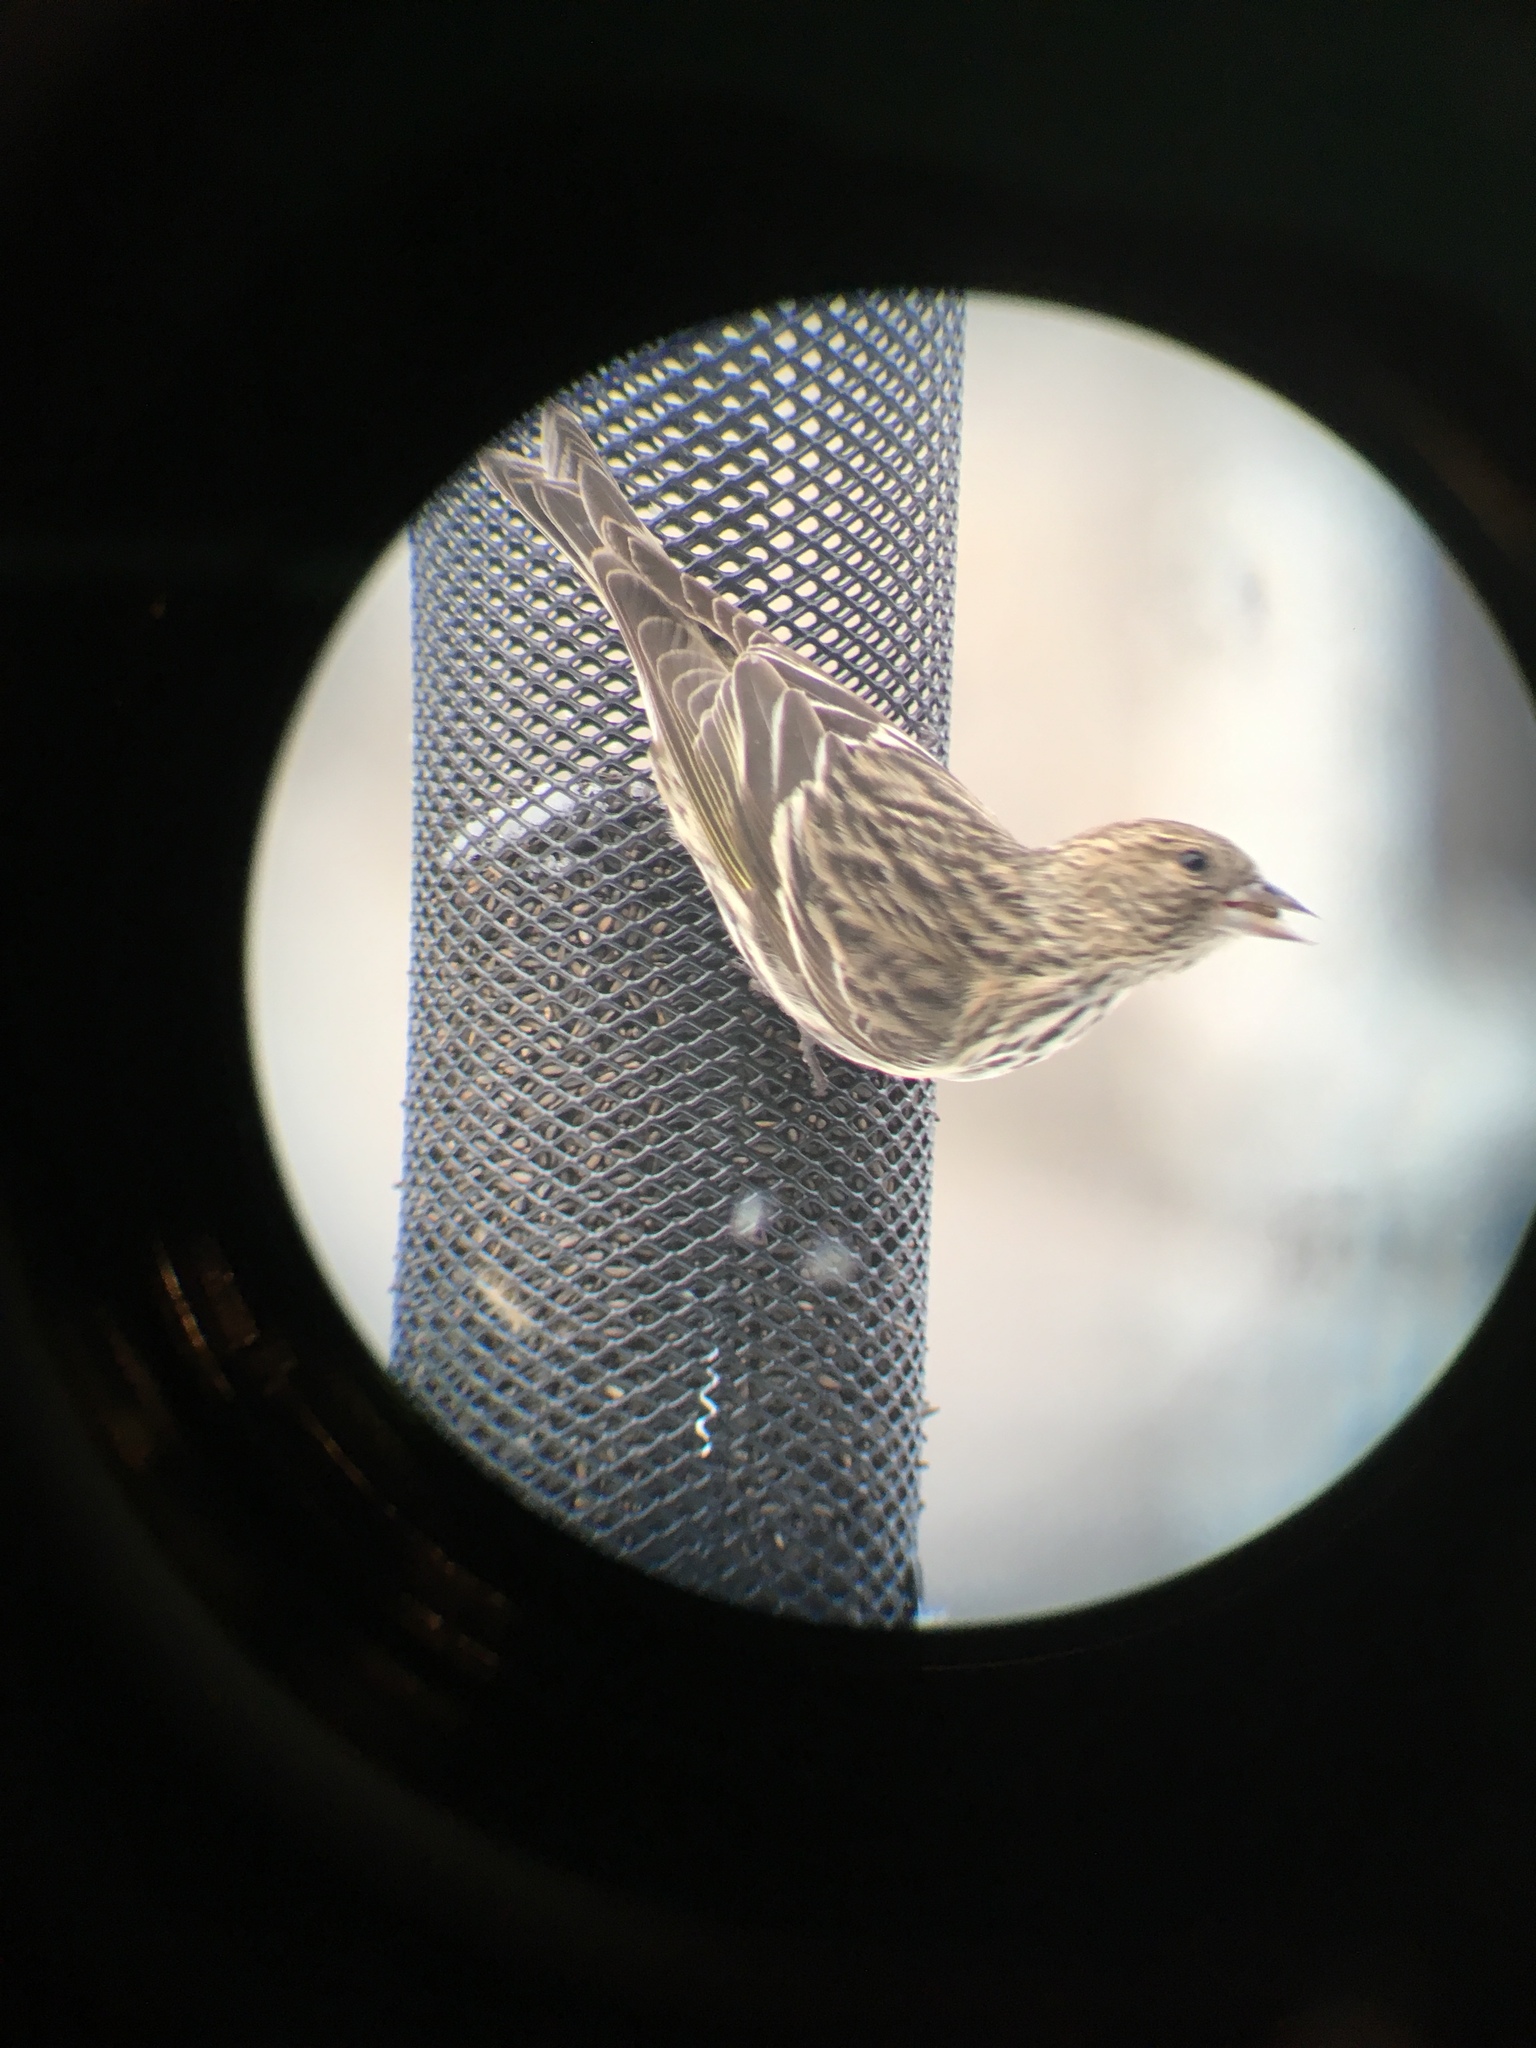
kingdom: Animalia
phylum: Chordata
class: Aves
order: Passeriformes
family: Fringillidae
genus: Spinus
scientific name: Spinus pinus
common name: Pine siskin
